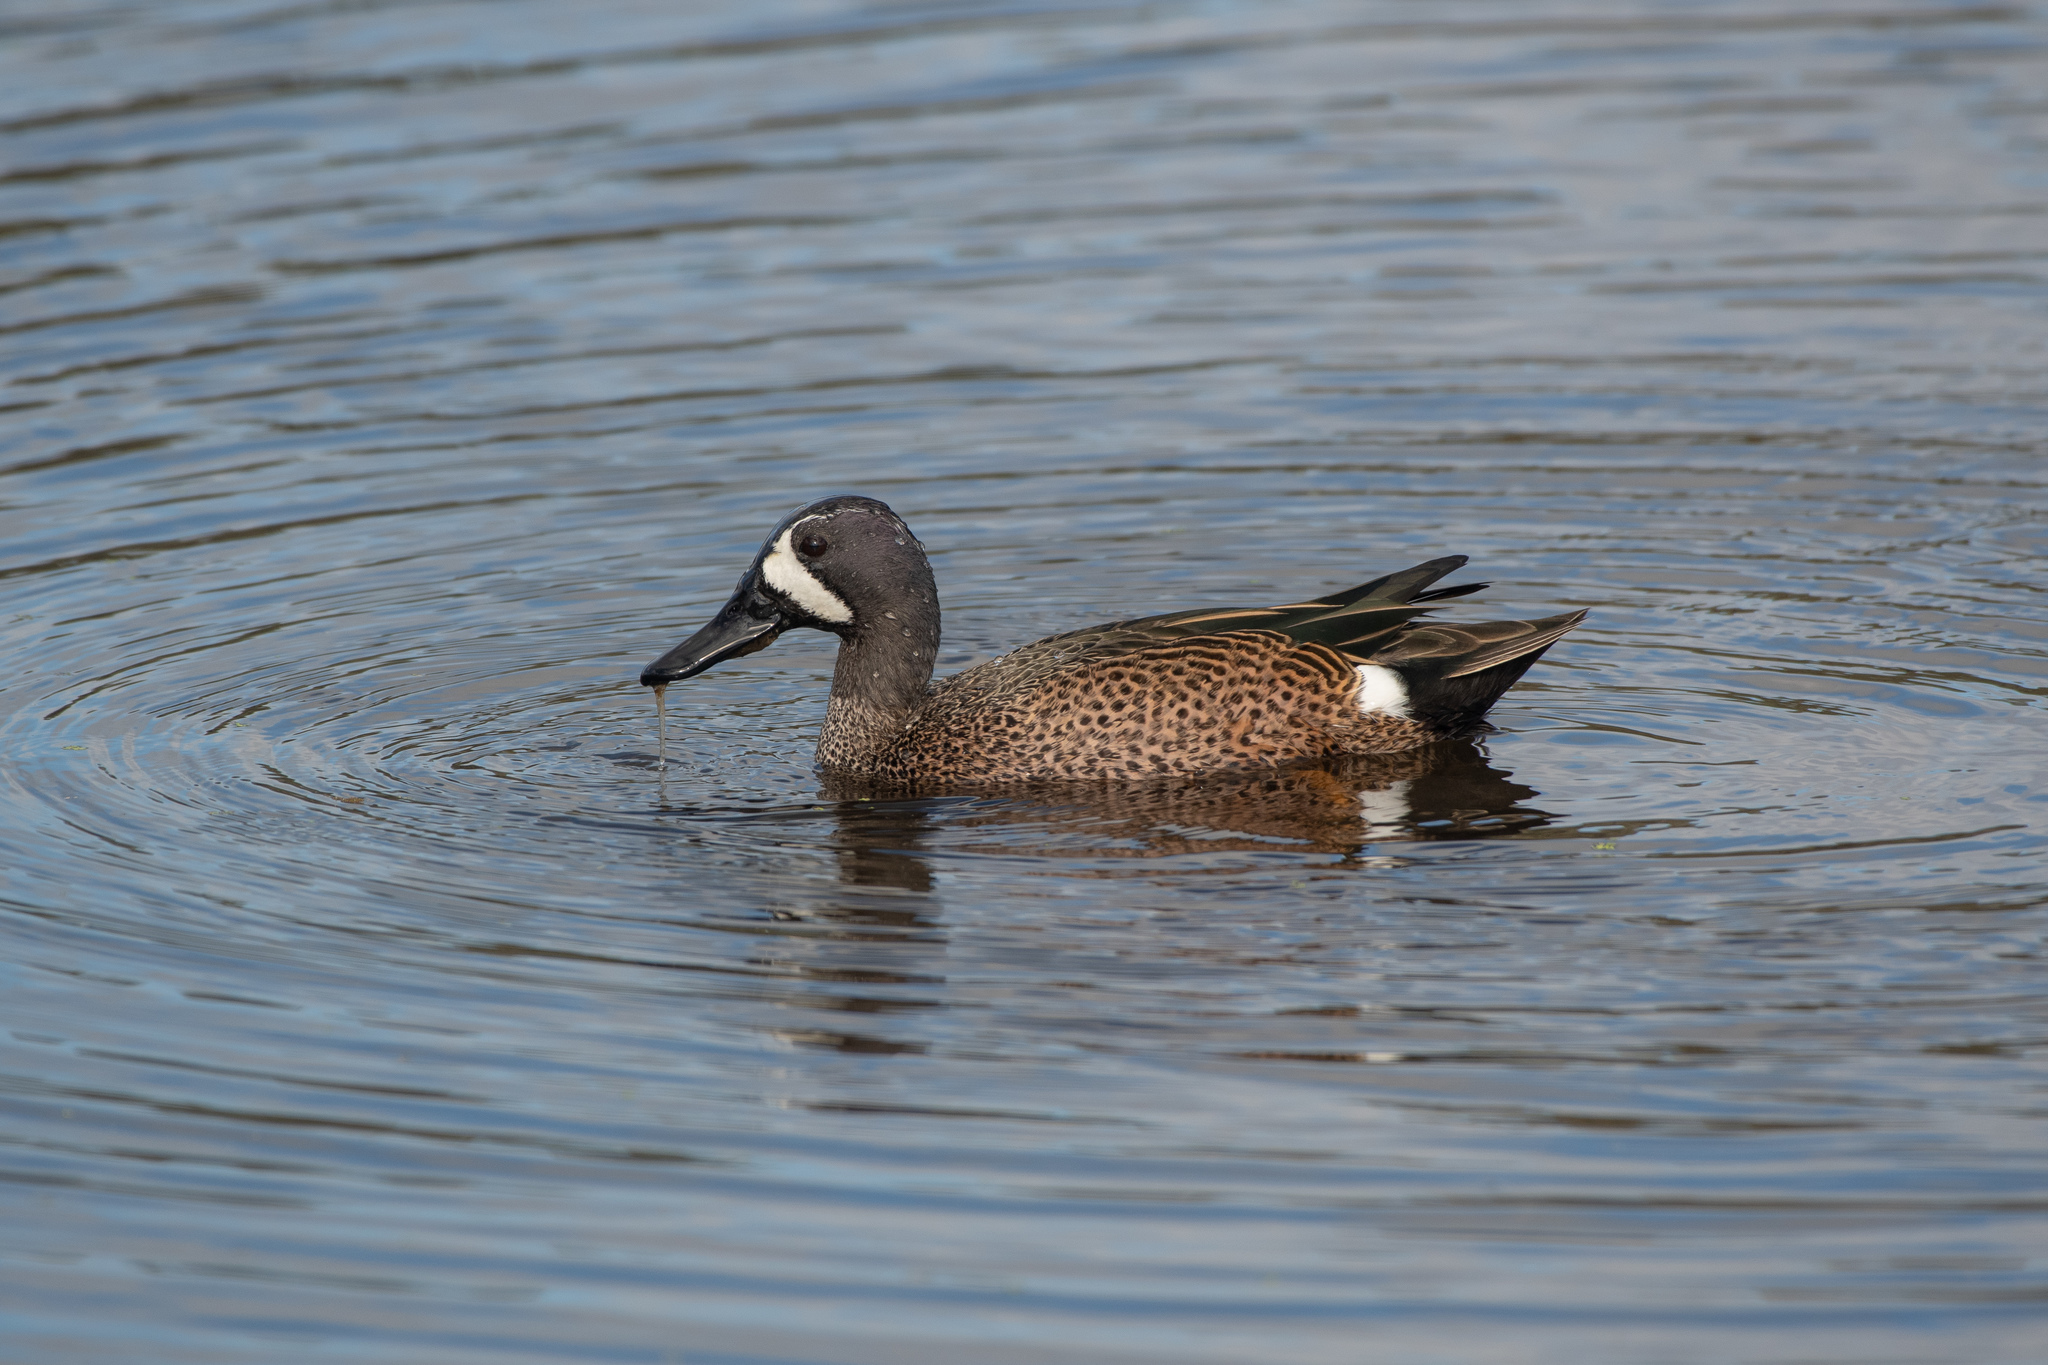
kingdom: Animalia
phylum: Chordata
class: Aves
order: Anseriformes
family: Anatidae
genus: Spatula
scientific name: Spatula discors
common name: Blue-winged teal
